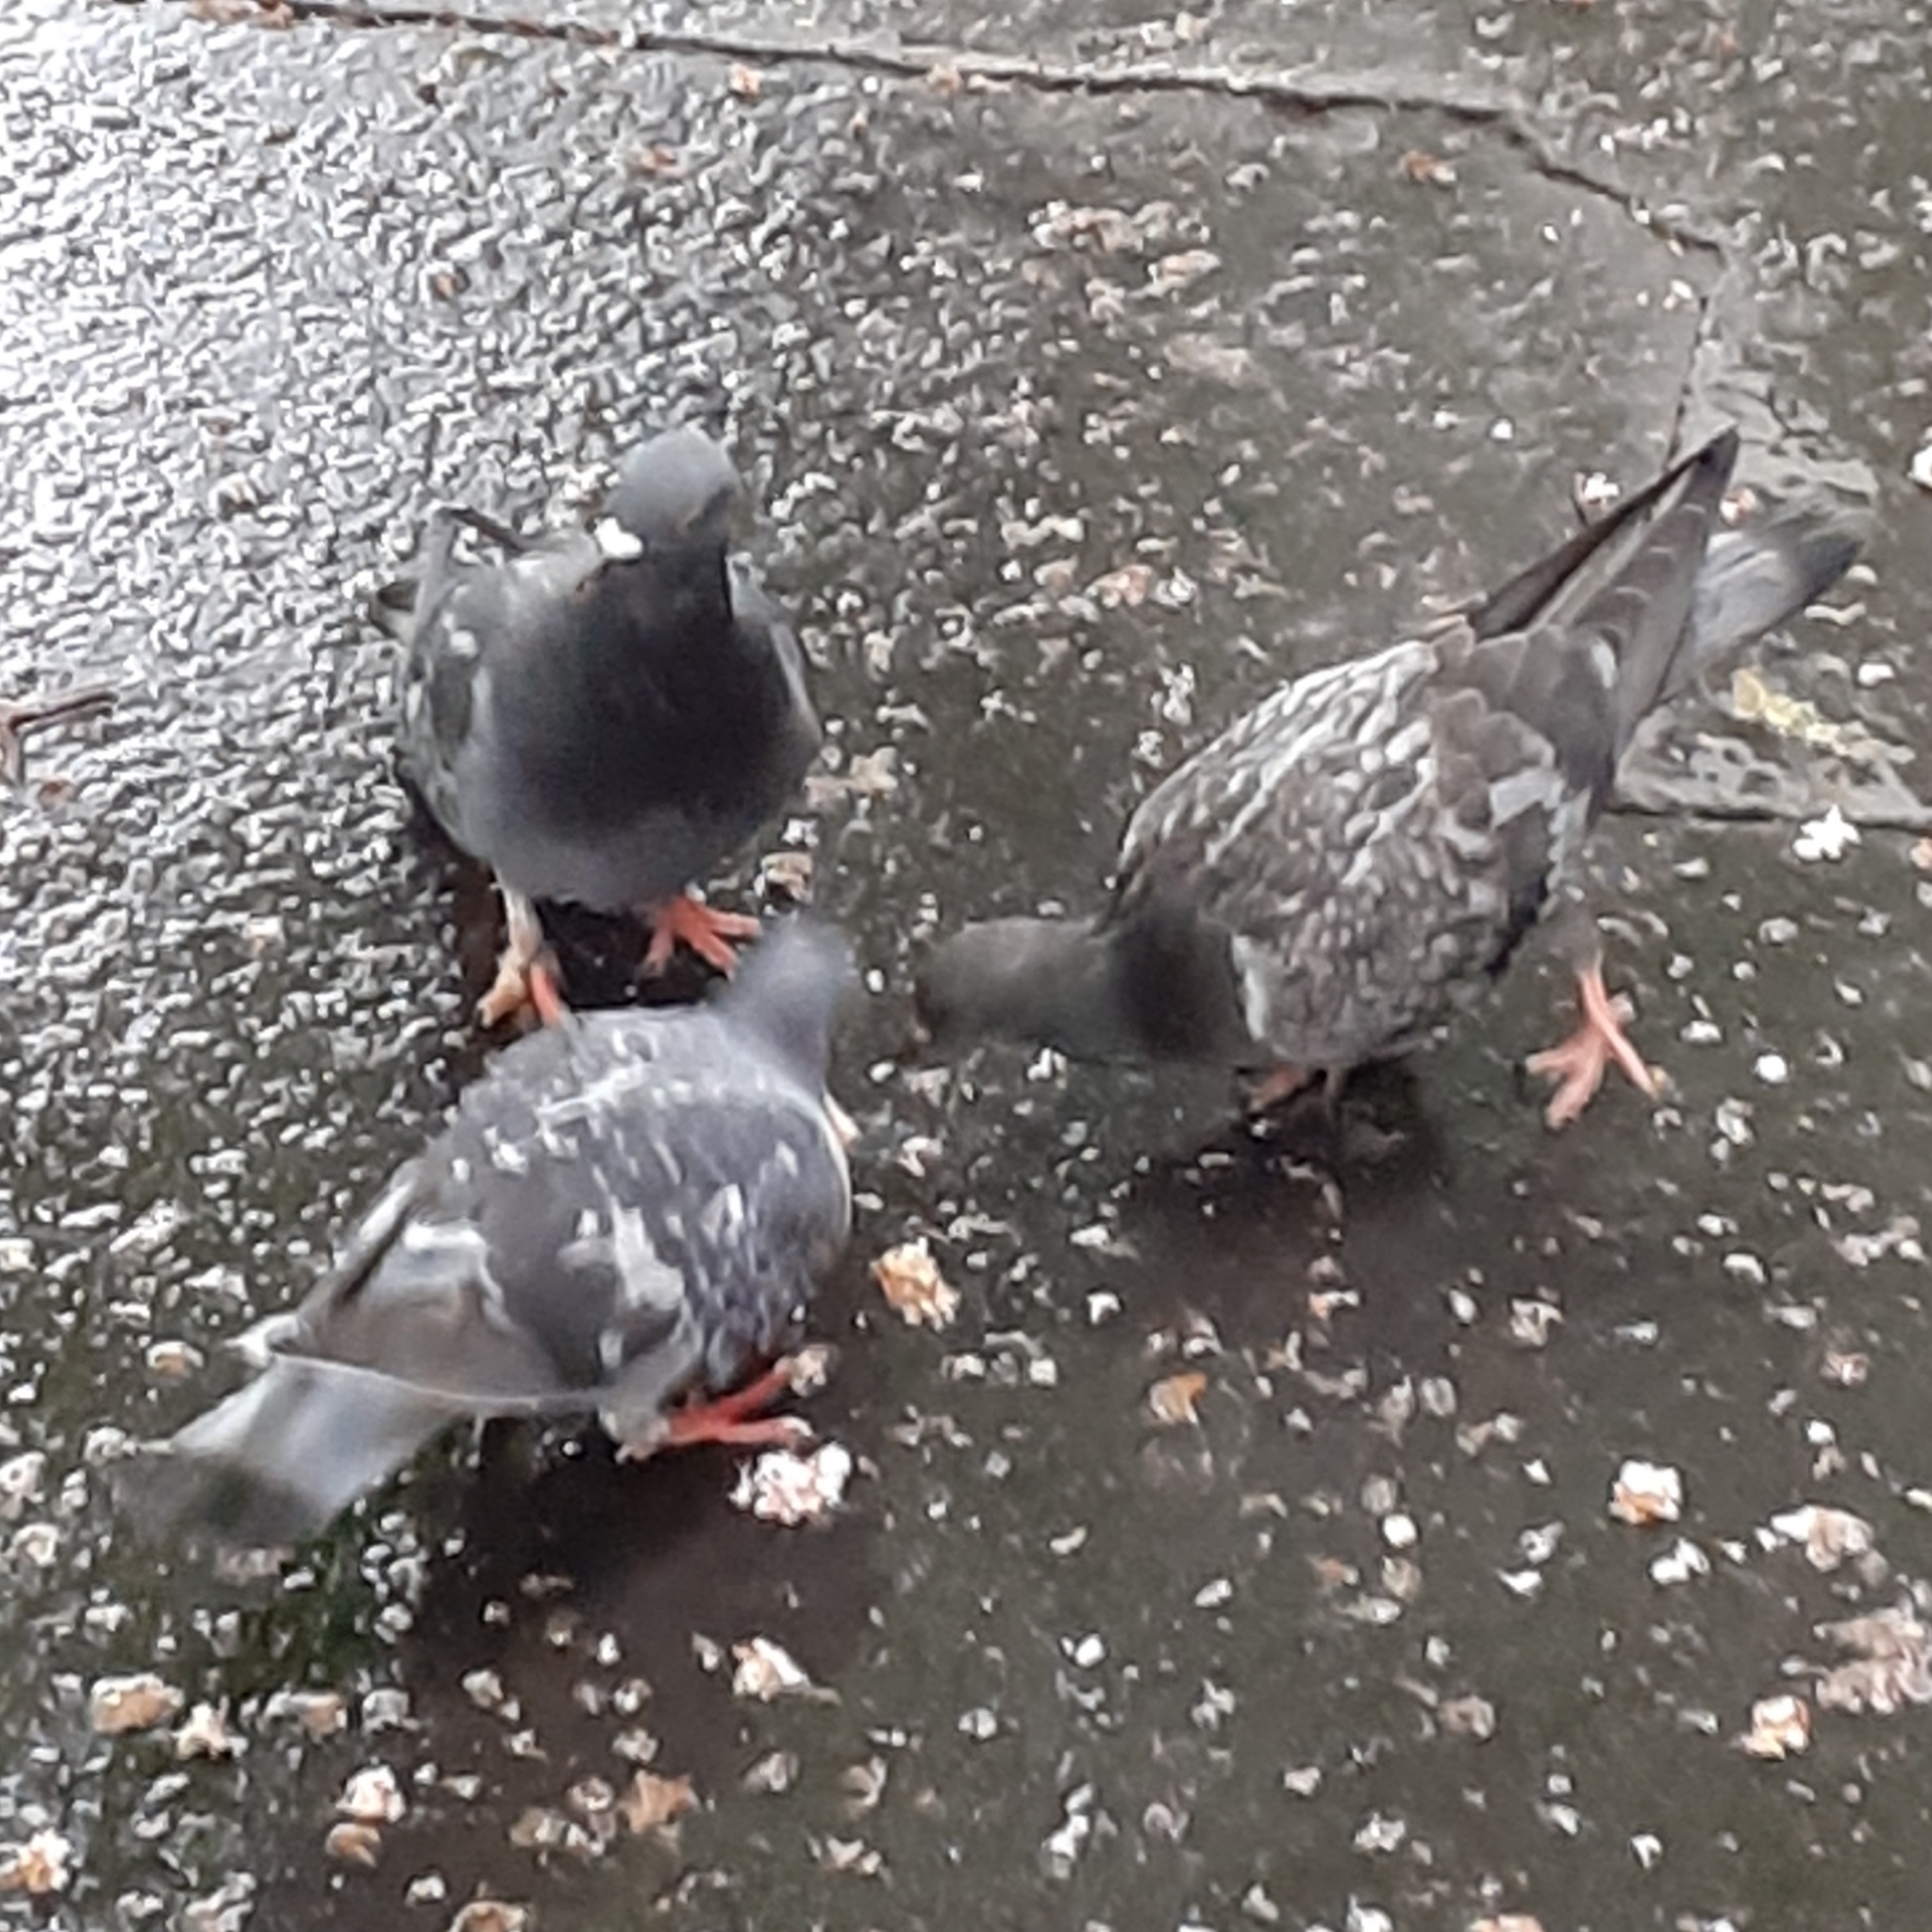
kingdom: Animalia
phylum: Chordata
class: Aves
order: Columbiformes
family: Columbidae
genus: Columba
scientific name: Columba livia
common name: Rock pigeon
